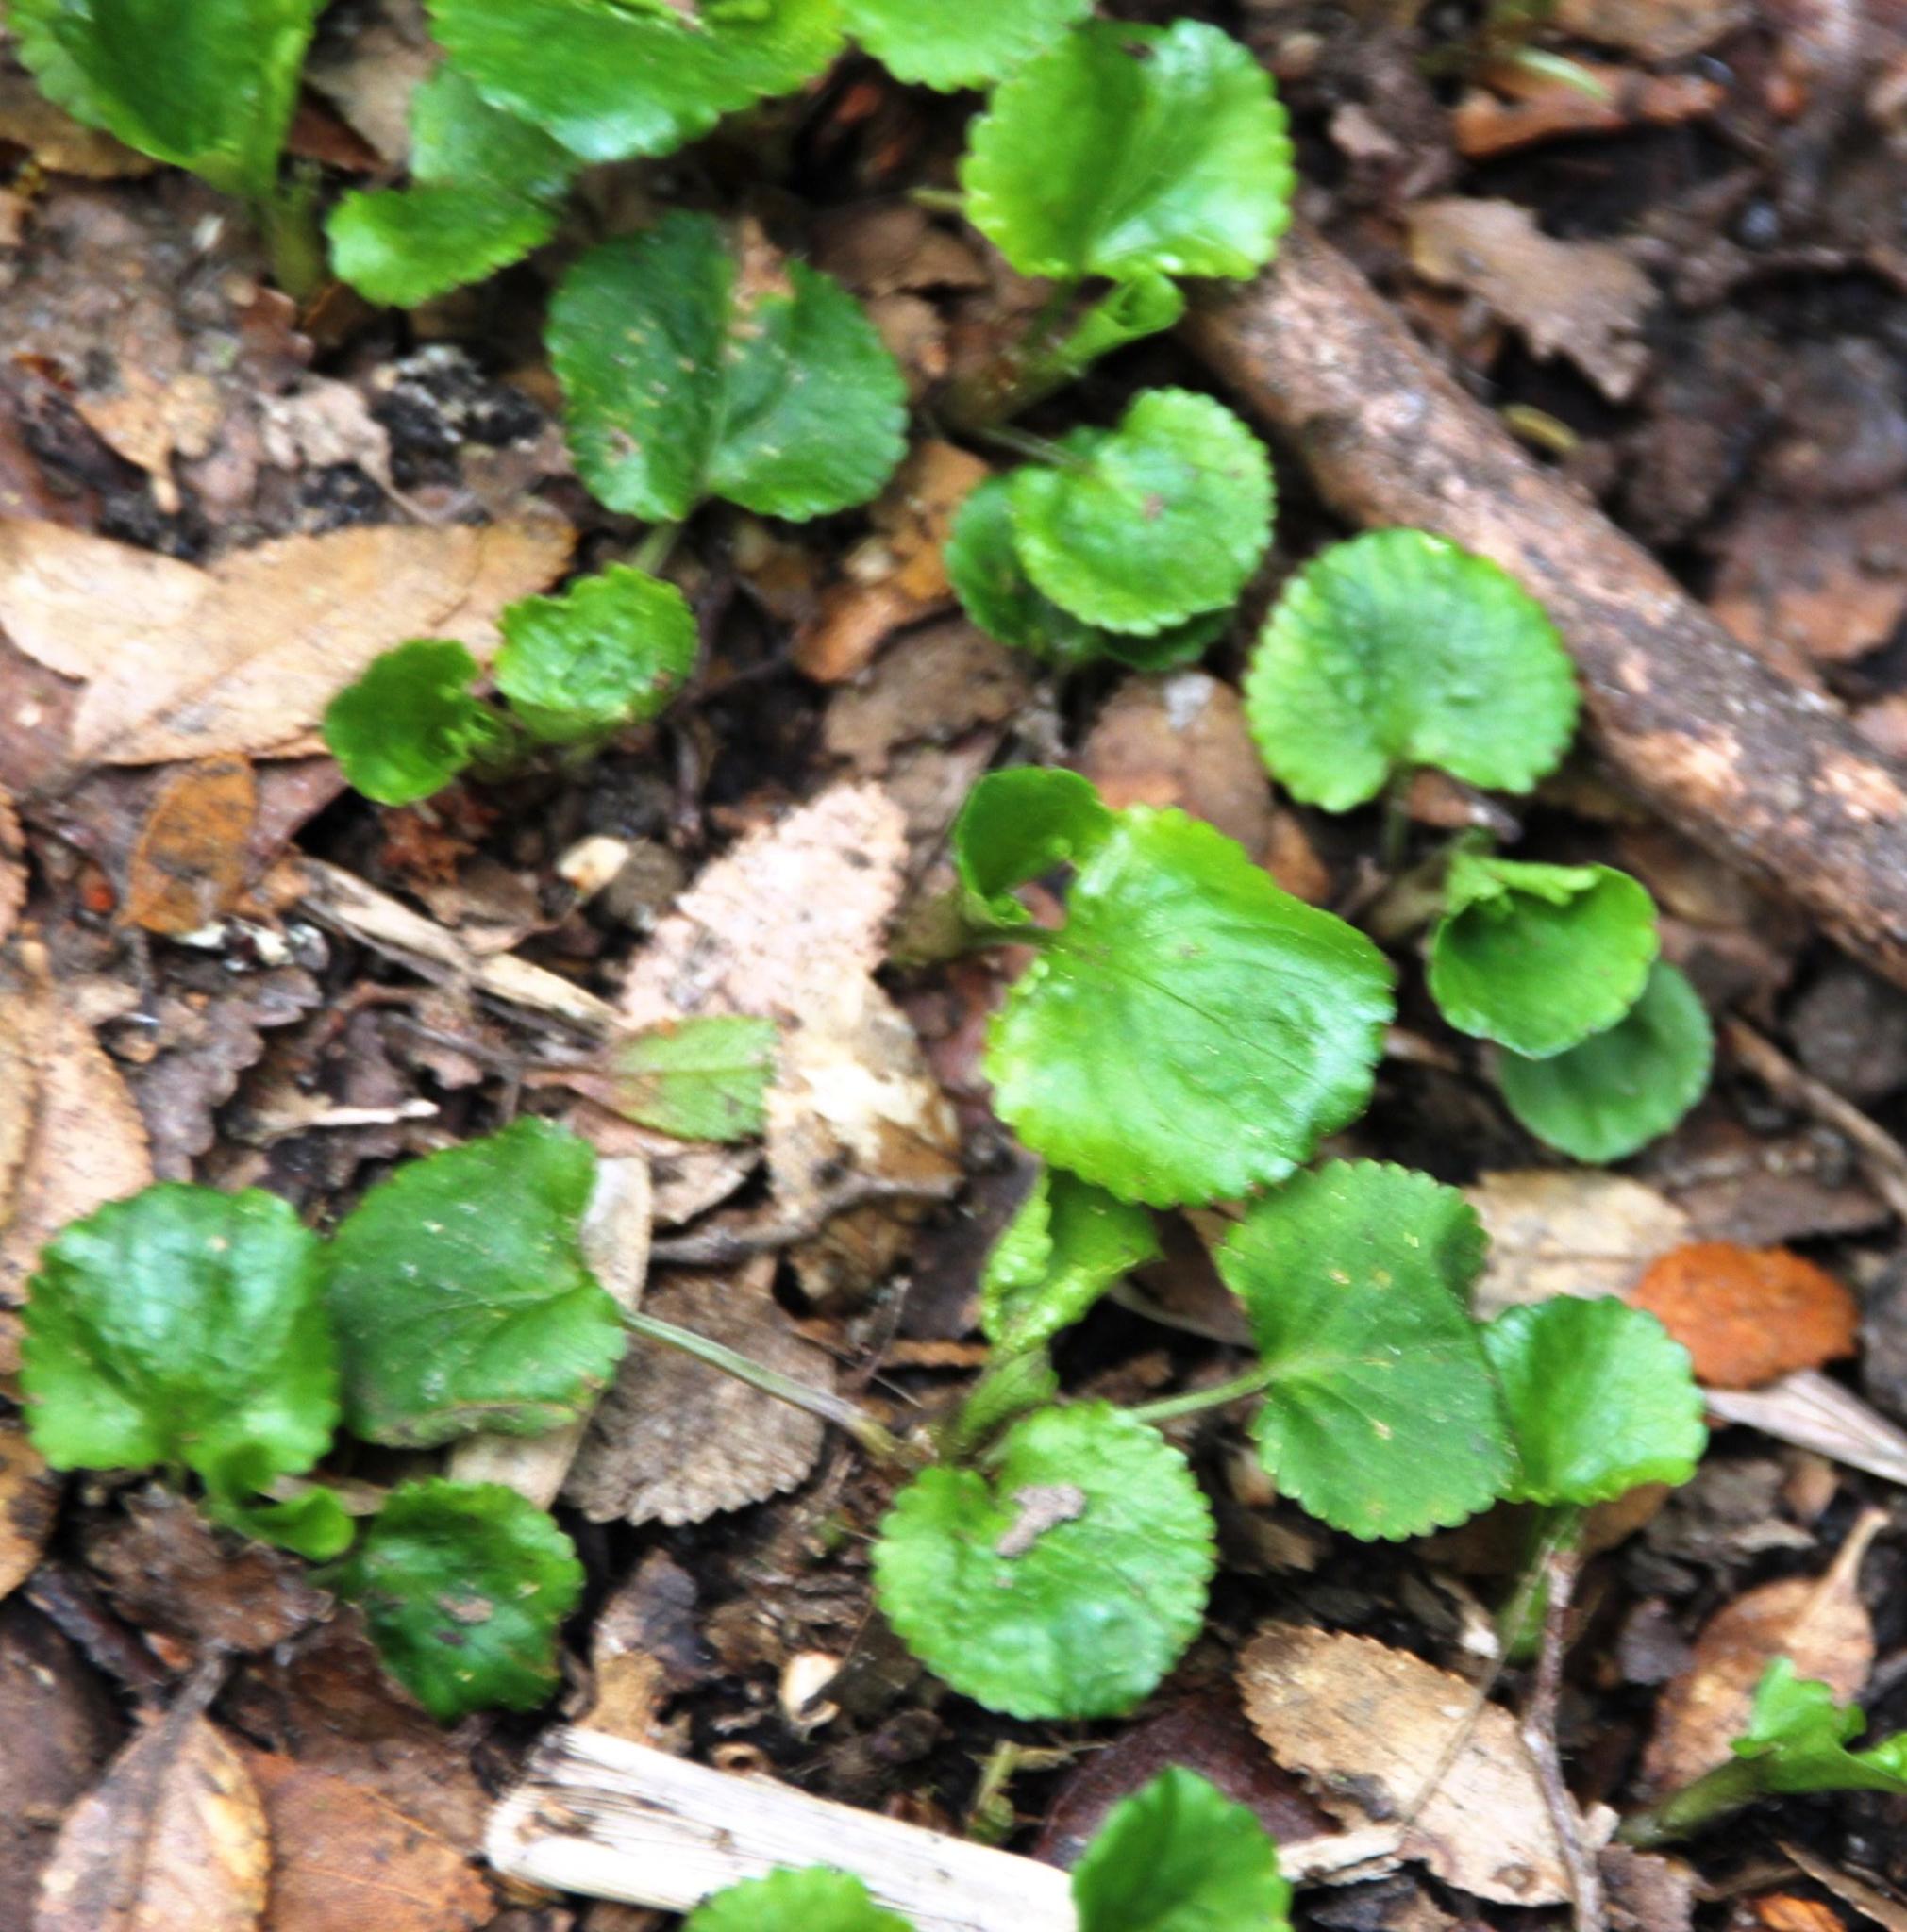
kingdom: Plantae
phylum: Tracheophyta
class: Magnoliopsida
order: Malpighiales
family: Violaceae
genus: Viola
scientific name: Viola reichei
